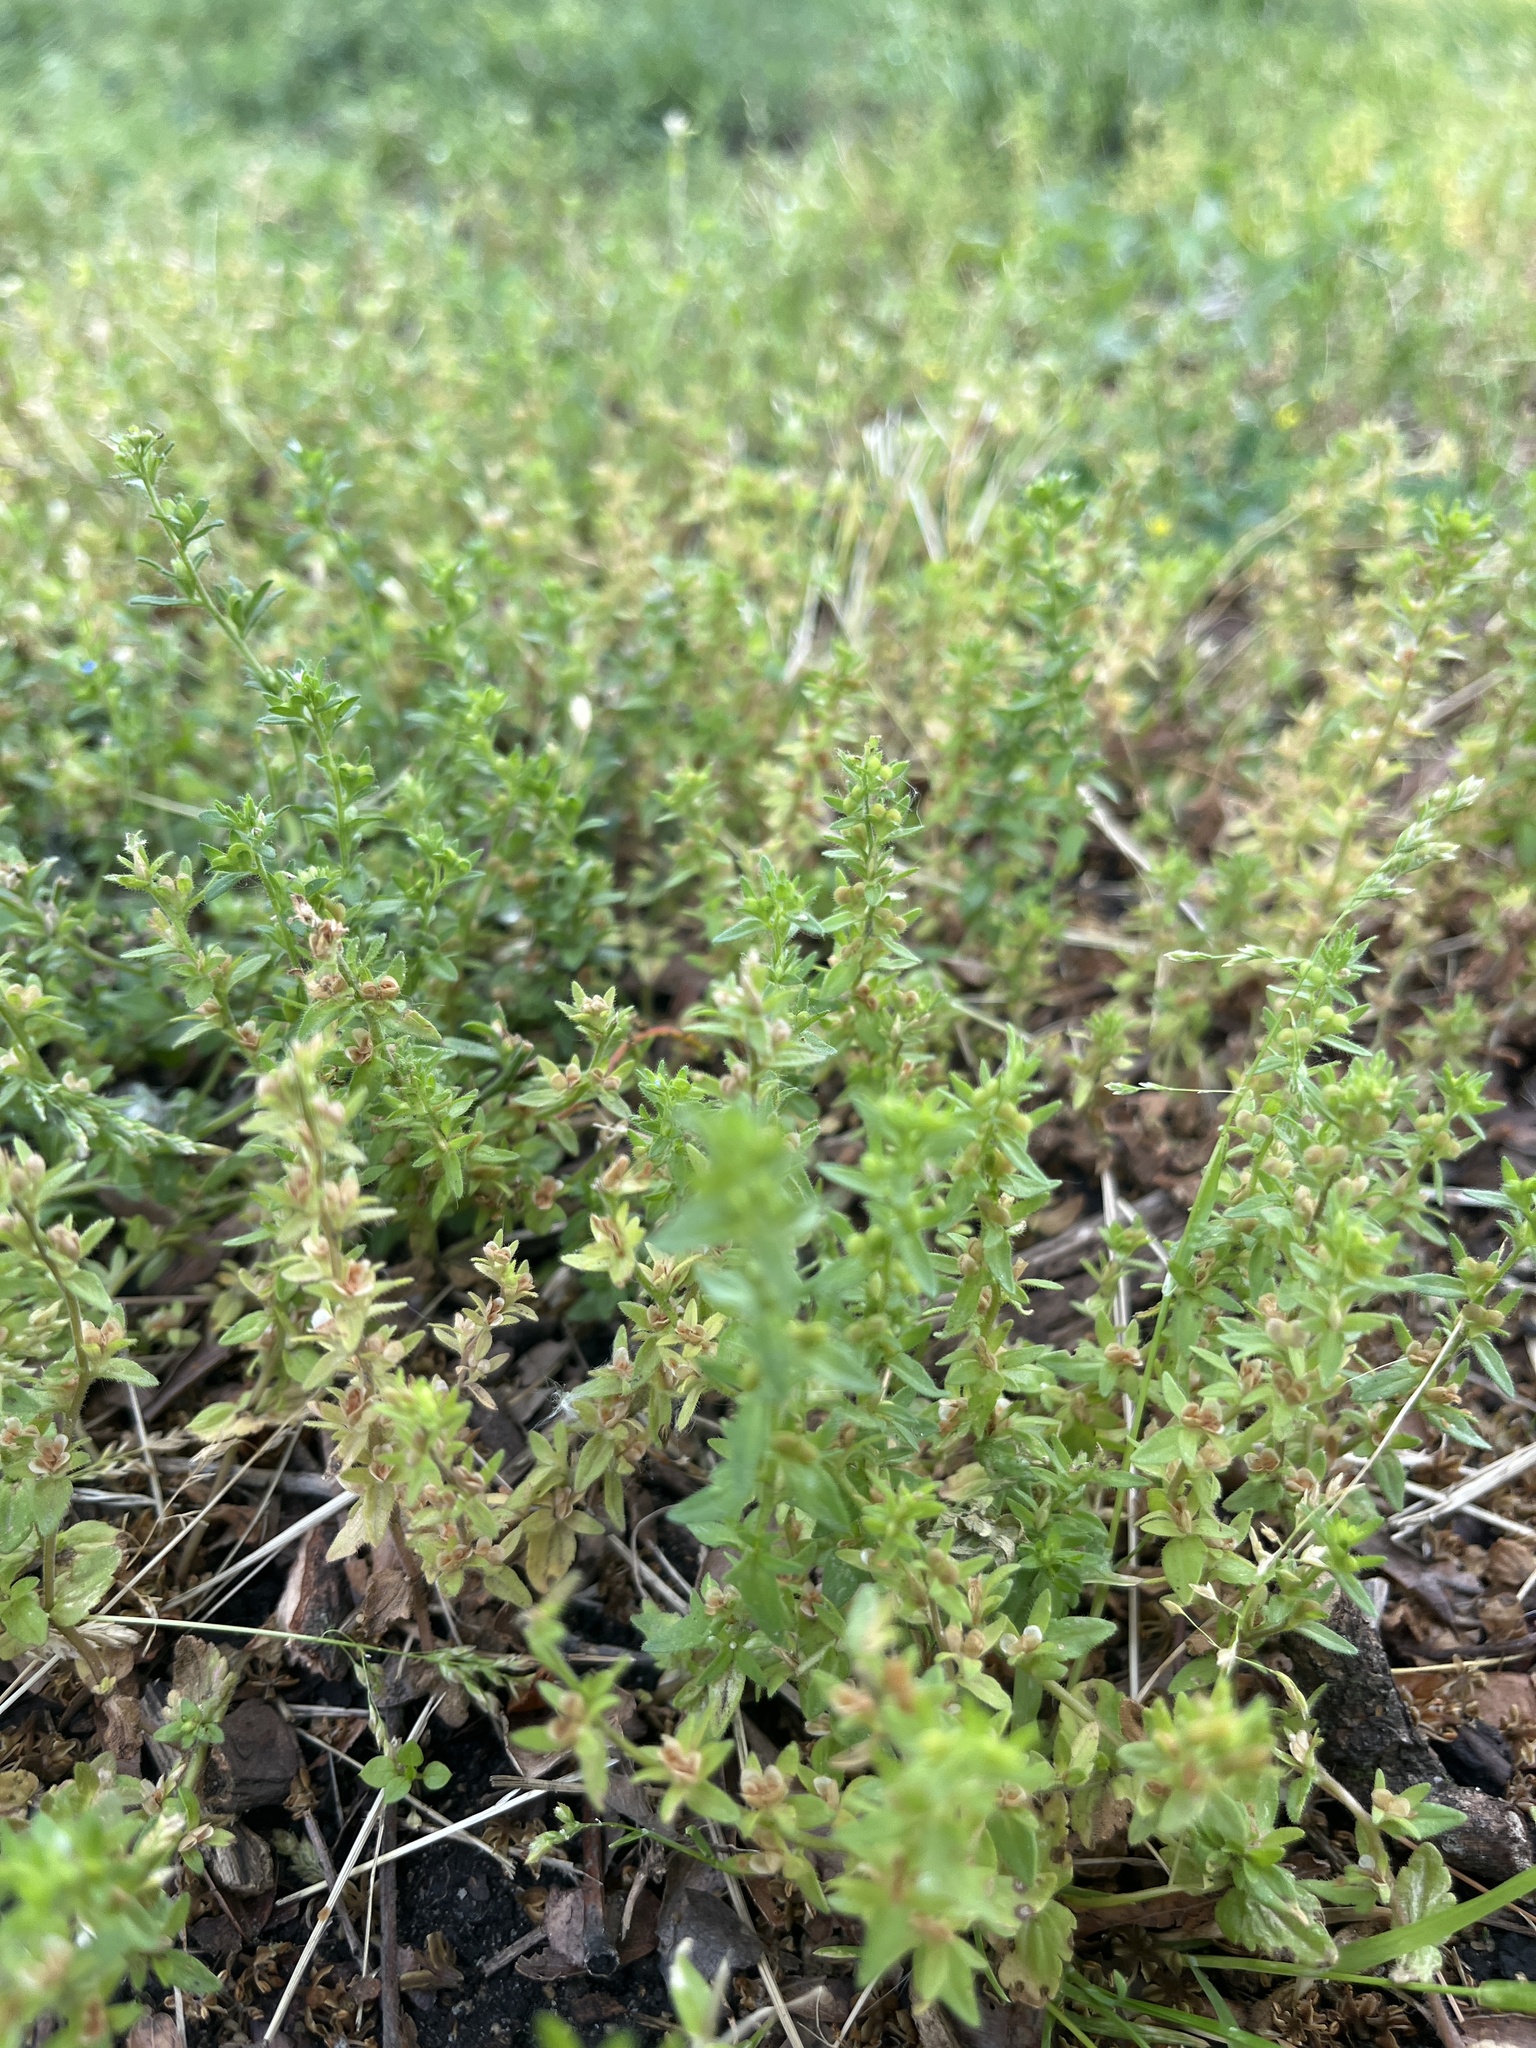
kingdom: Plantae
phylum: Tracheophyta
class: Magnoliopsida
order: Lamiales
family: Plantaginaceae
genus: Veronica
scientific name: Veronica arvensis
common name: Corn speedwell
